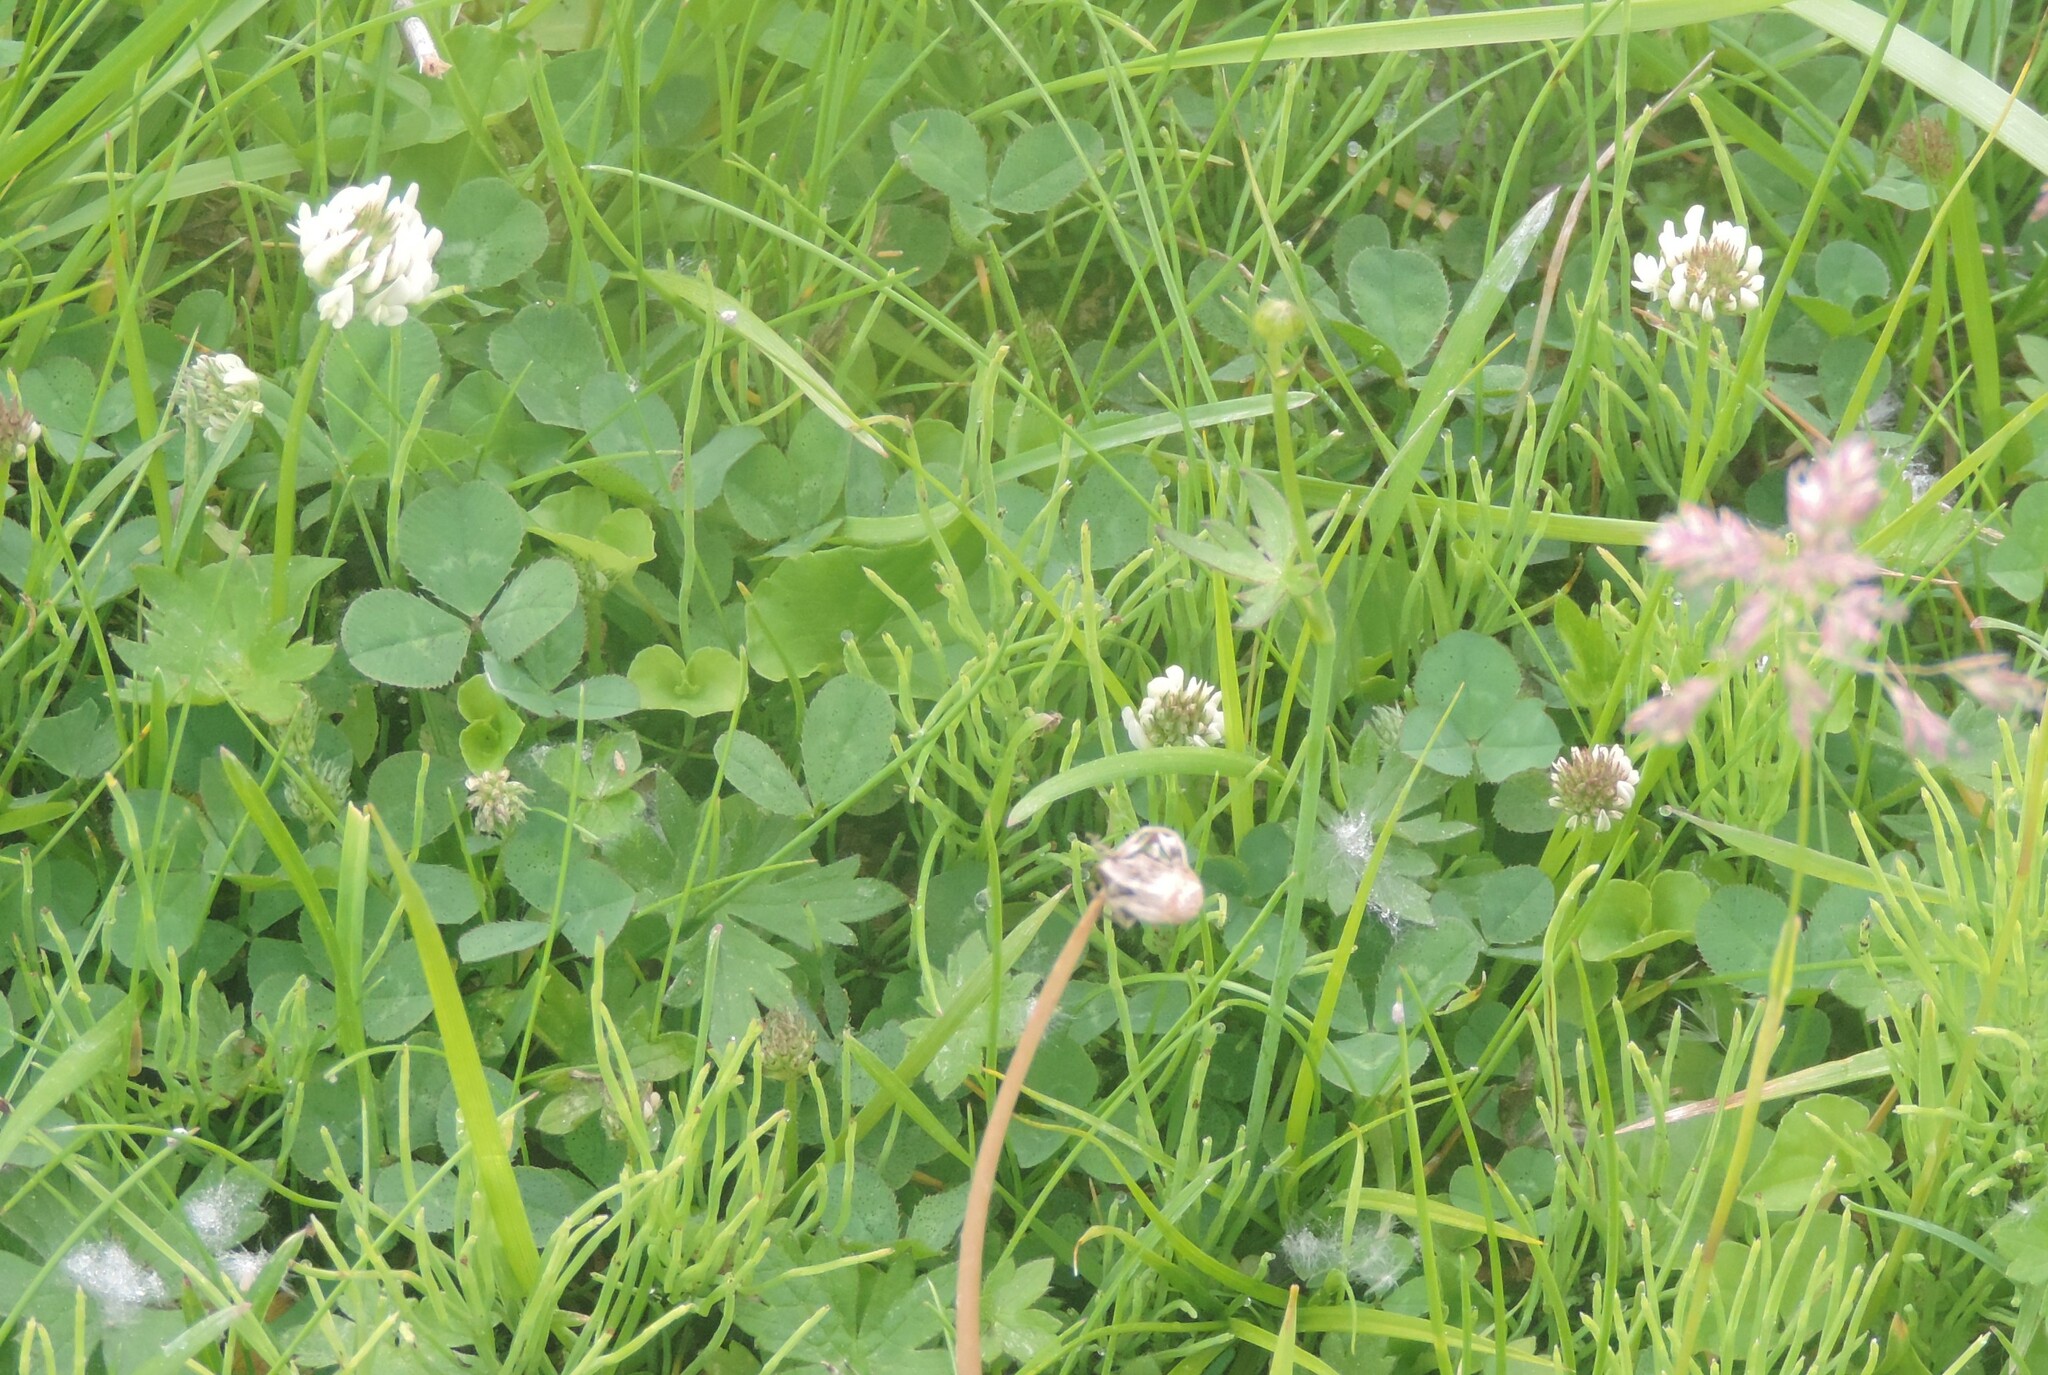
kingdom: Plantae
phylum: Tracheophyta
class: Magnoliopsida
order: Fabales
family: Fabaceae
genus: Trifolium
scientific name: Trifolium repens
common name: White clover
